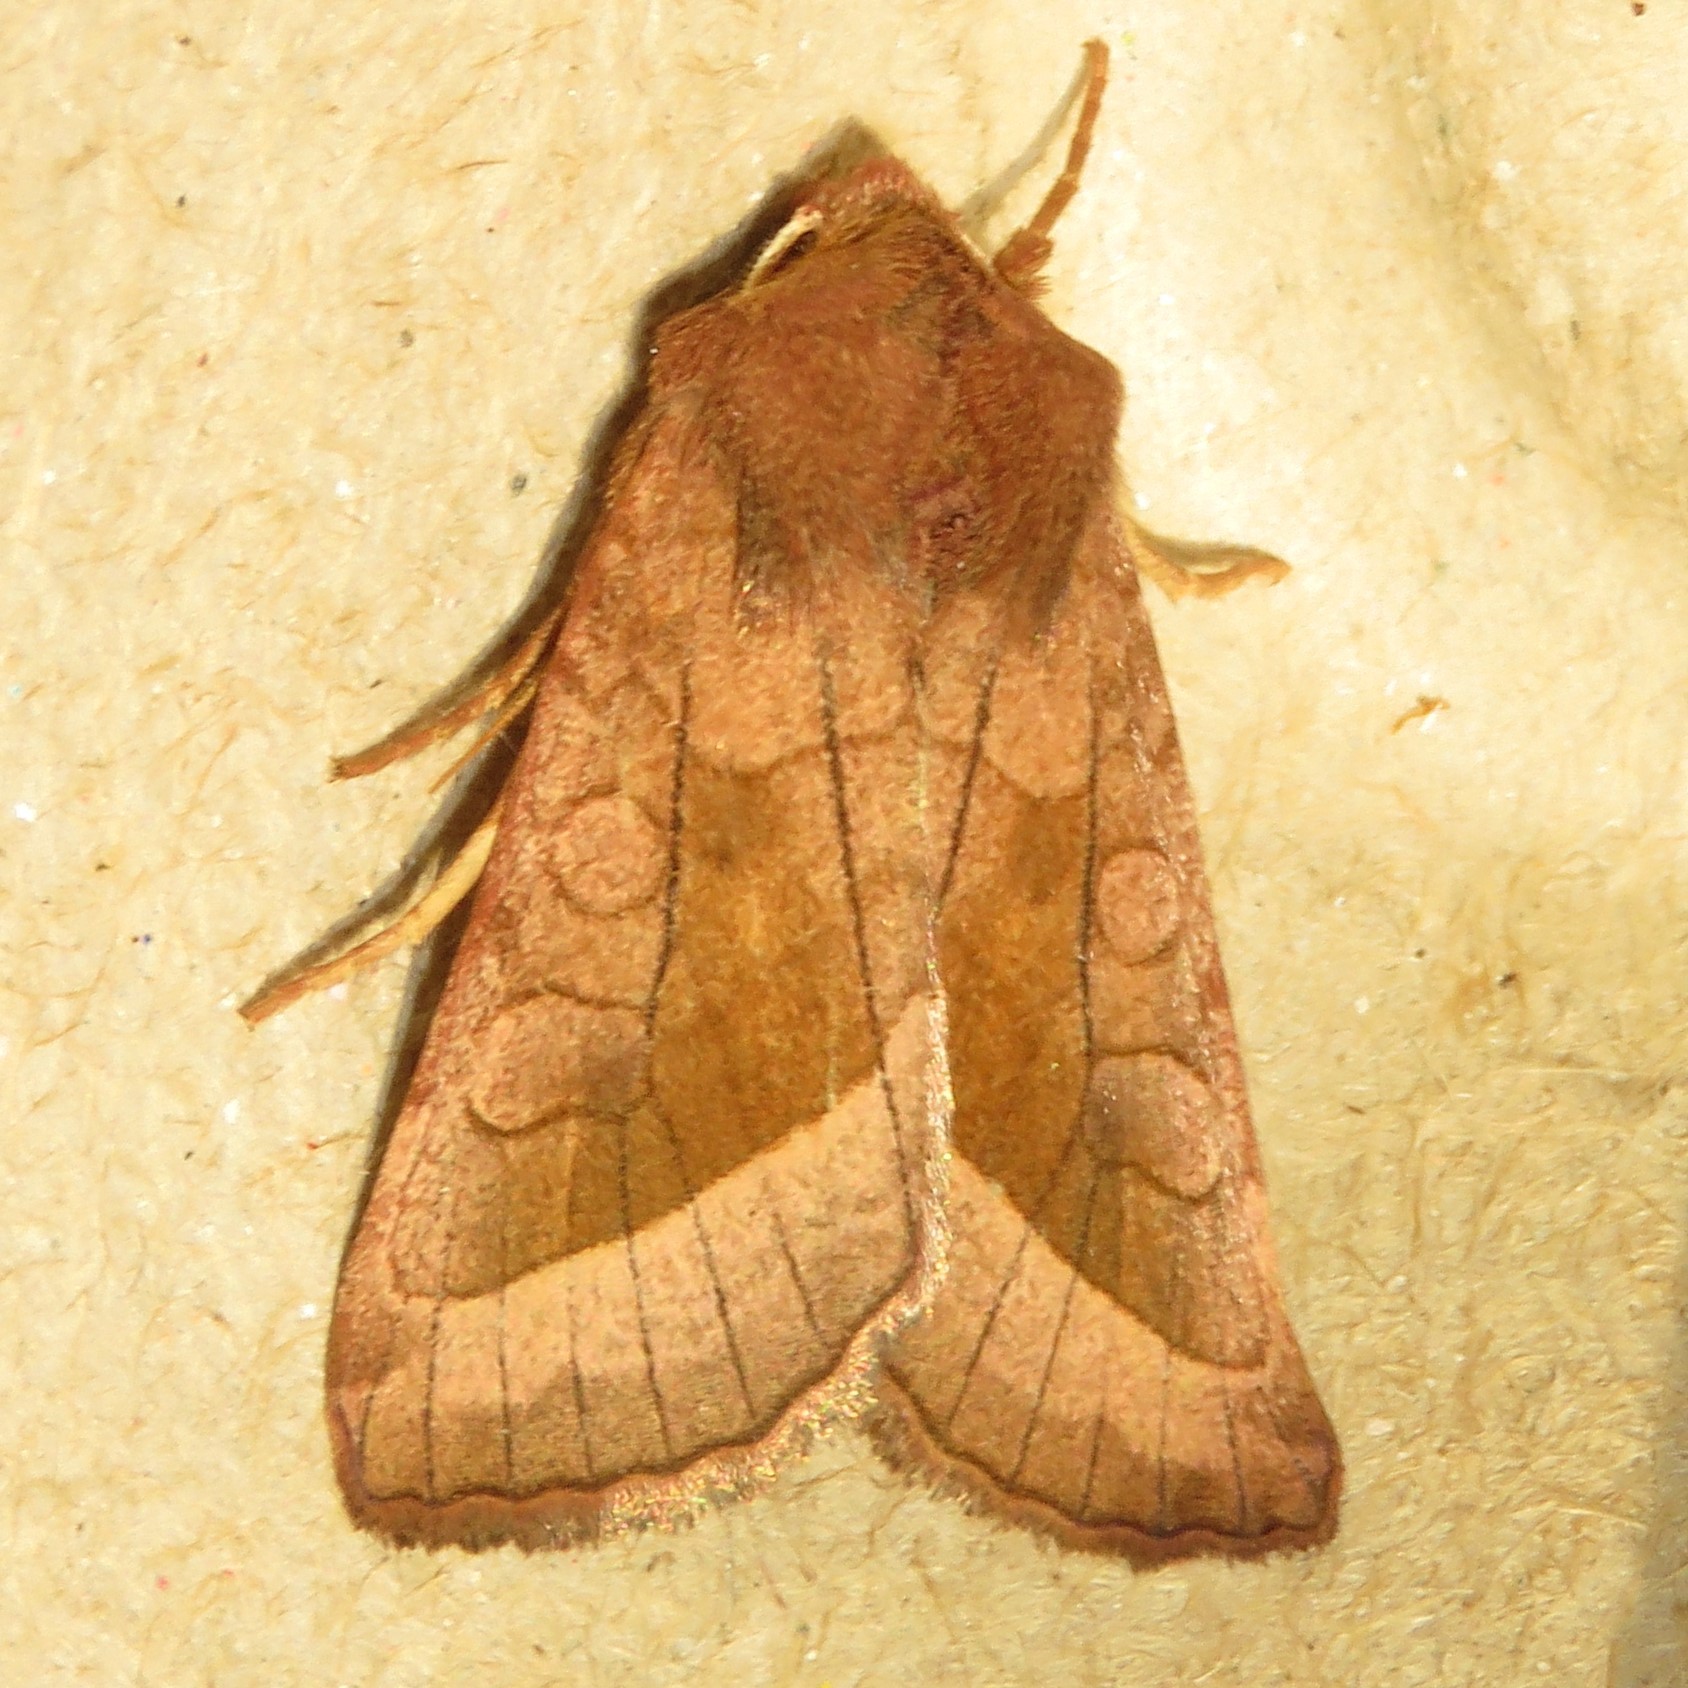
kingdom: Animalia
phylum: Arthropoda
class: Insecta
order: Lepidoptera
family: Noctuidae
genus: Hydraecia
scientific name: Hydraecia micacea
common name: Rosy rustic
